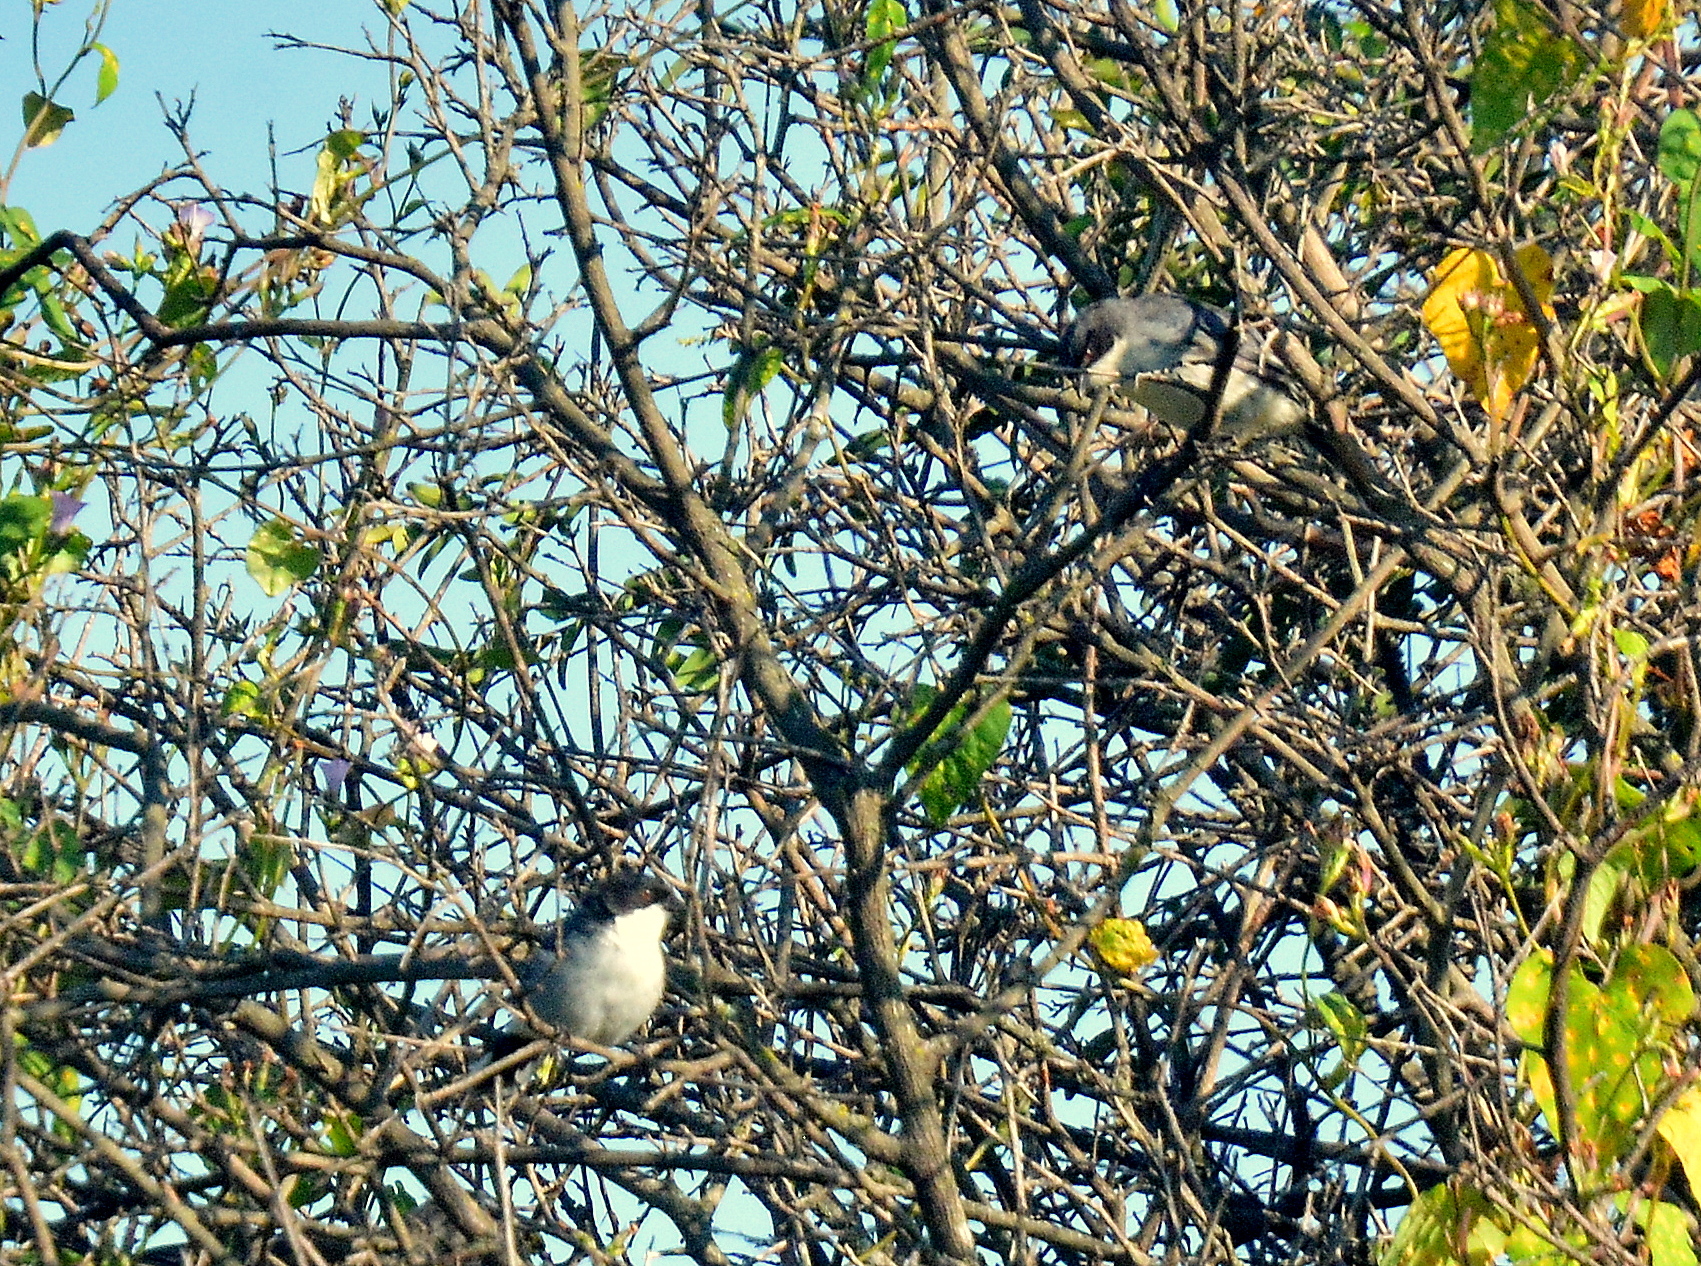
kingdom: Animalia
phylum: Chordata
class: Aves
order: Passeriformes
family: Thraupidae
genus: Microspingus
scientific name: Microspingus melanoleucus
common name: Black-capped warbling-finch
